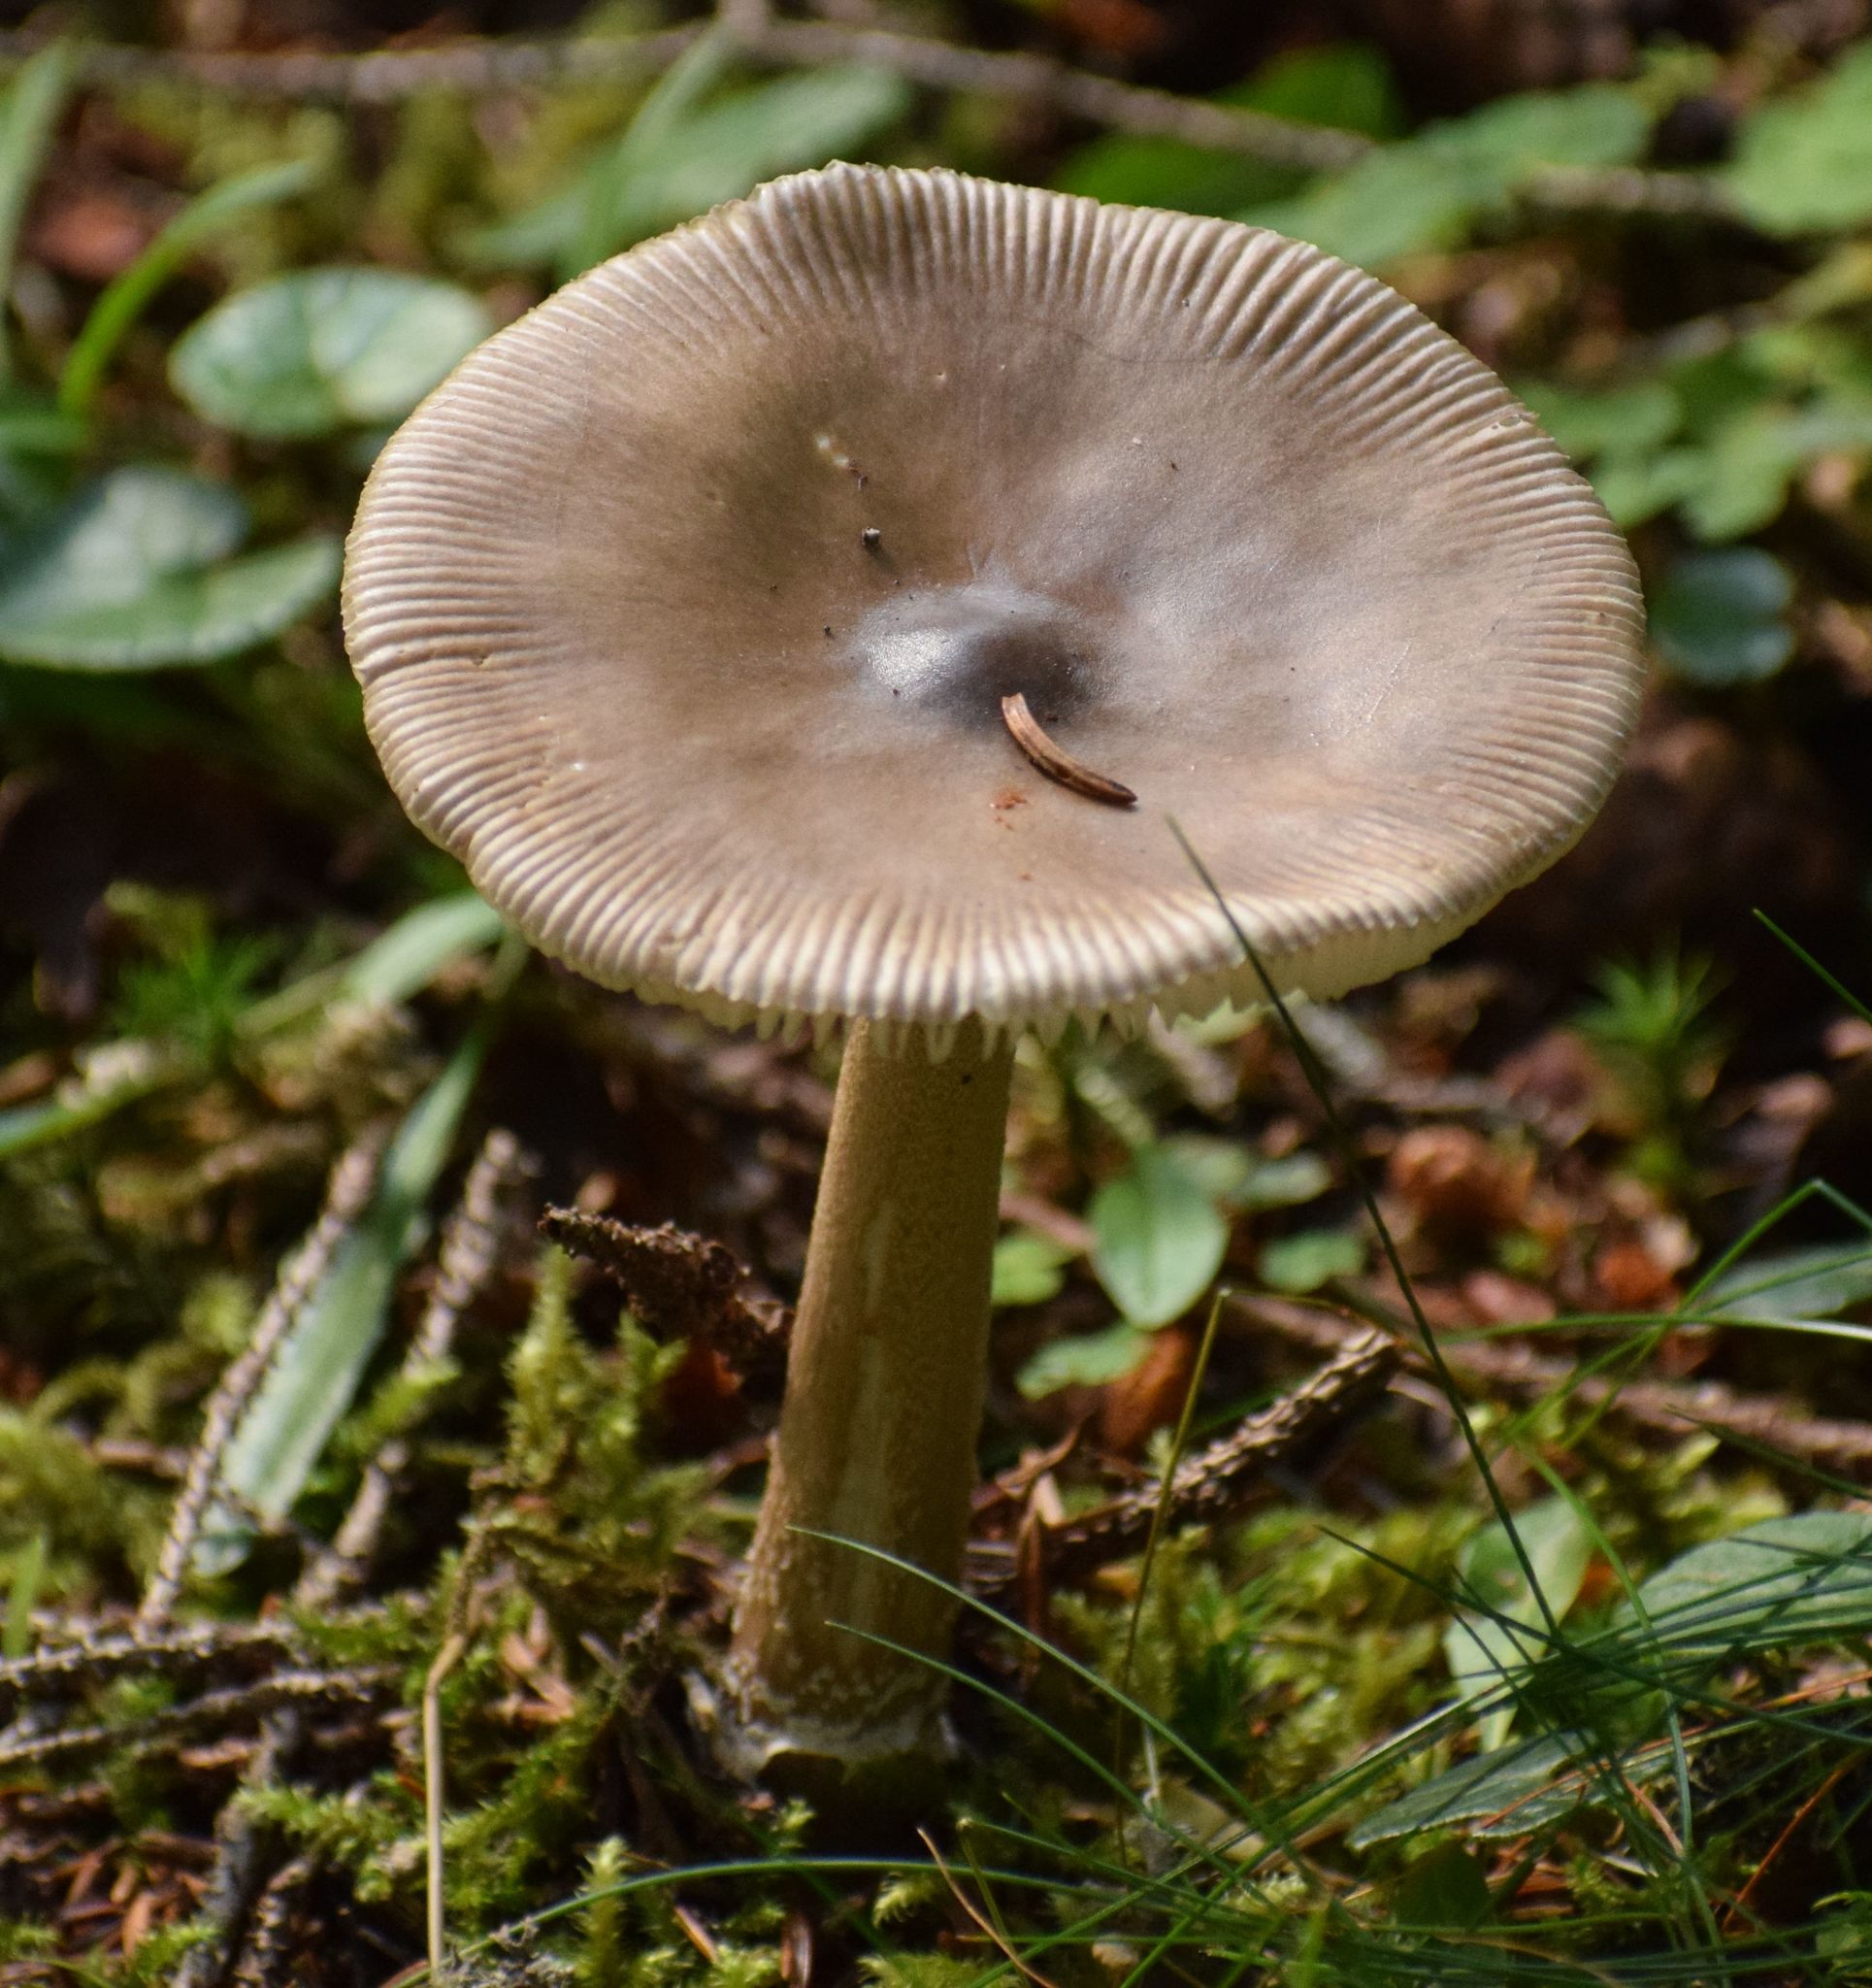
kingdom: Fungi
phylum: Basidiomycota
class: Agaricomycetes
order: Agaricales
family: Amanitaceae
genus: Amanita
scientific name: Amanita submembranacea
